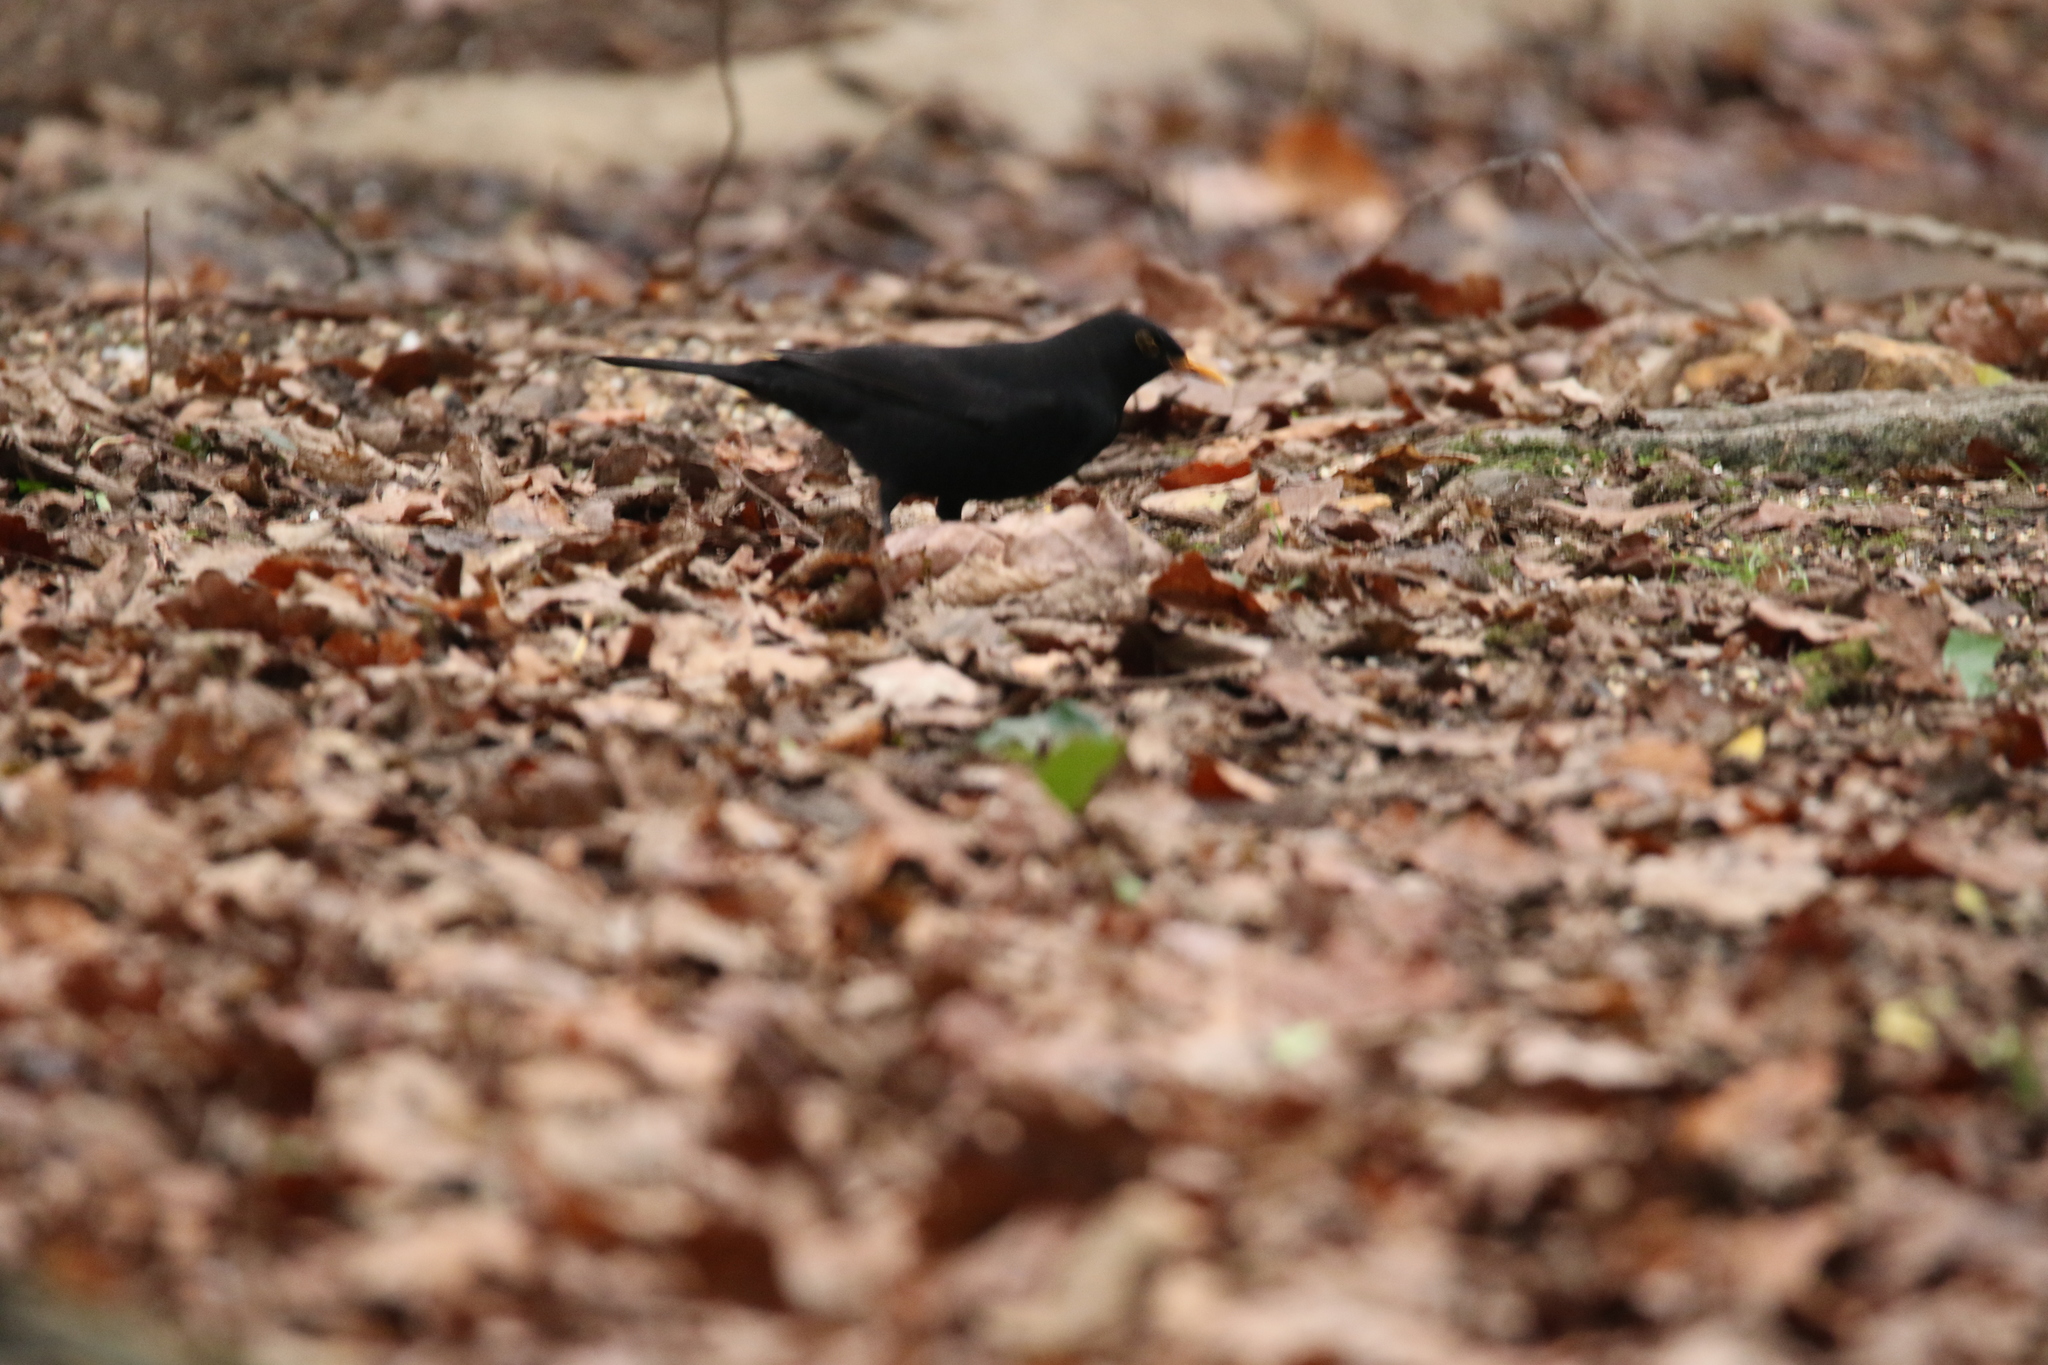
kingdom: Animalia
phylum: Chordata
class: Aves
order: Passeriformes
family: Turdidae
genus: Turdus
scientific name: Turdus merula
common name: Common blackbird
